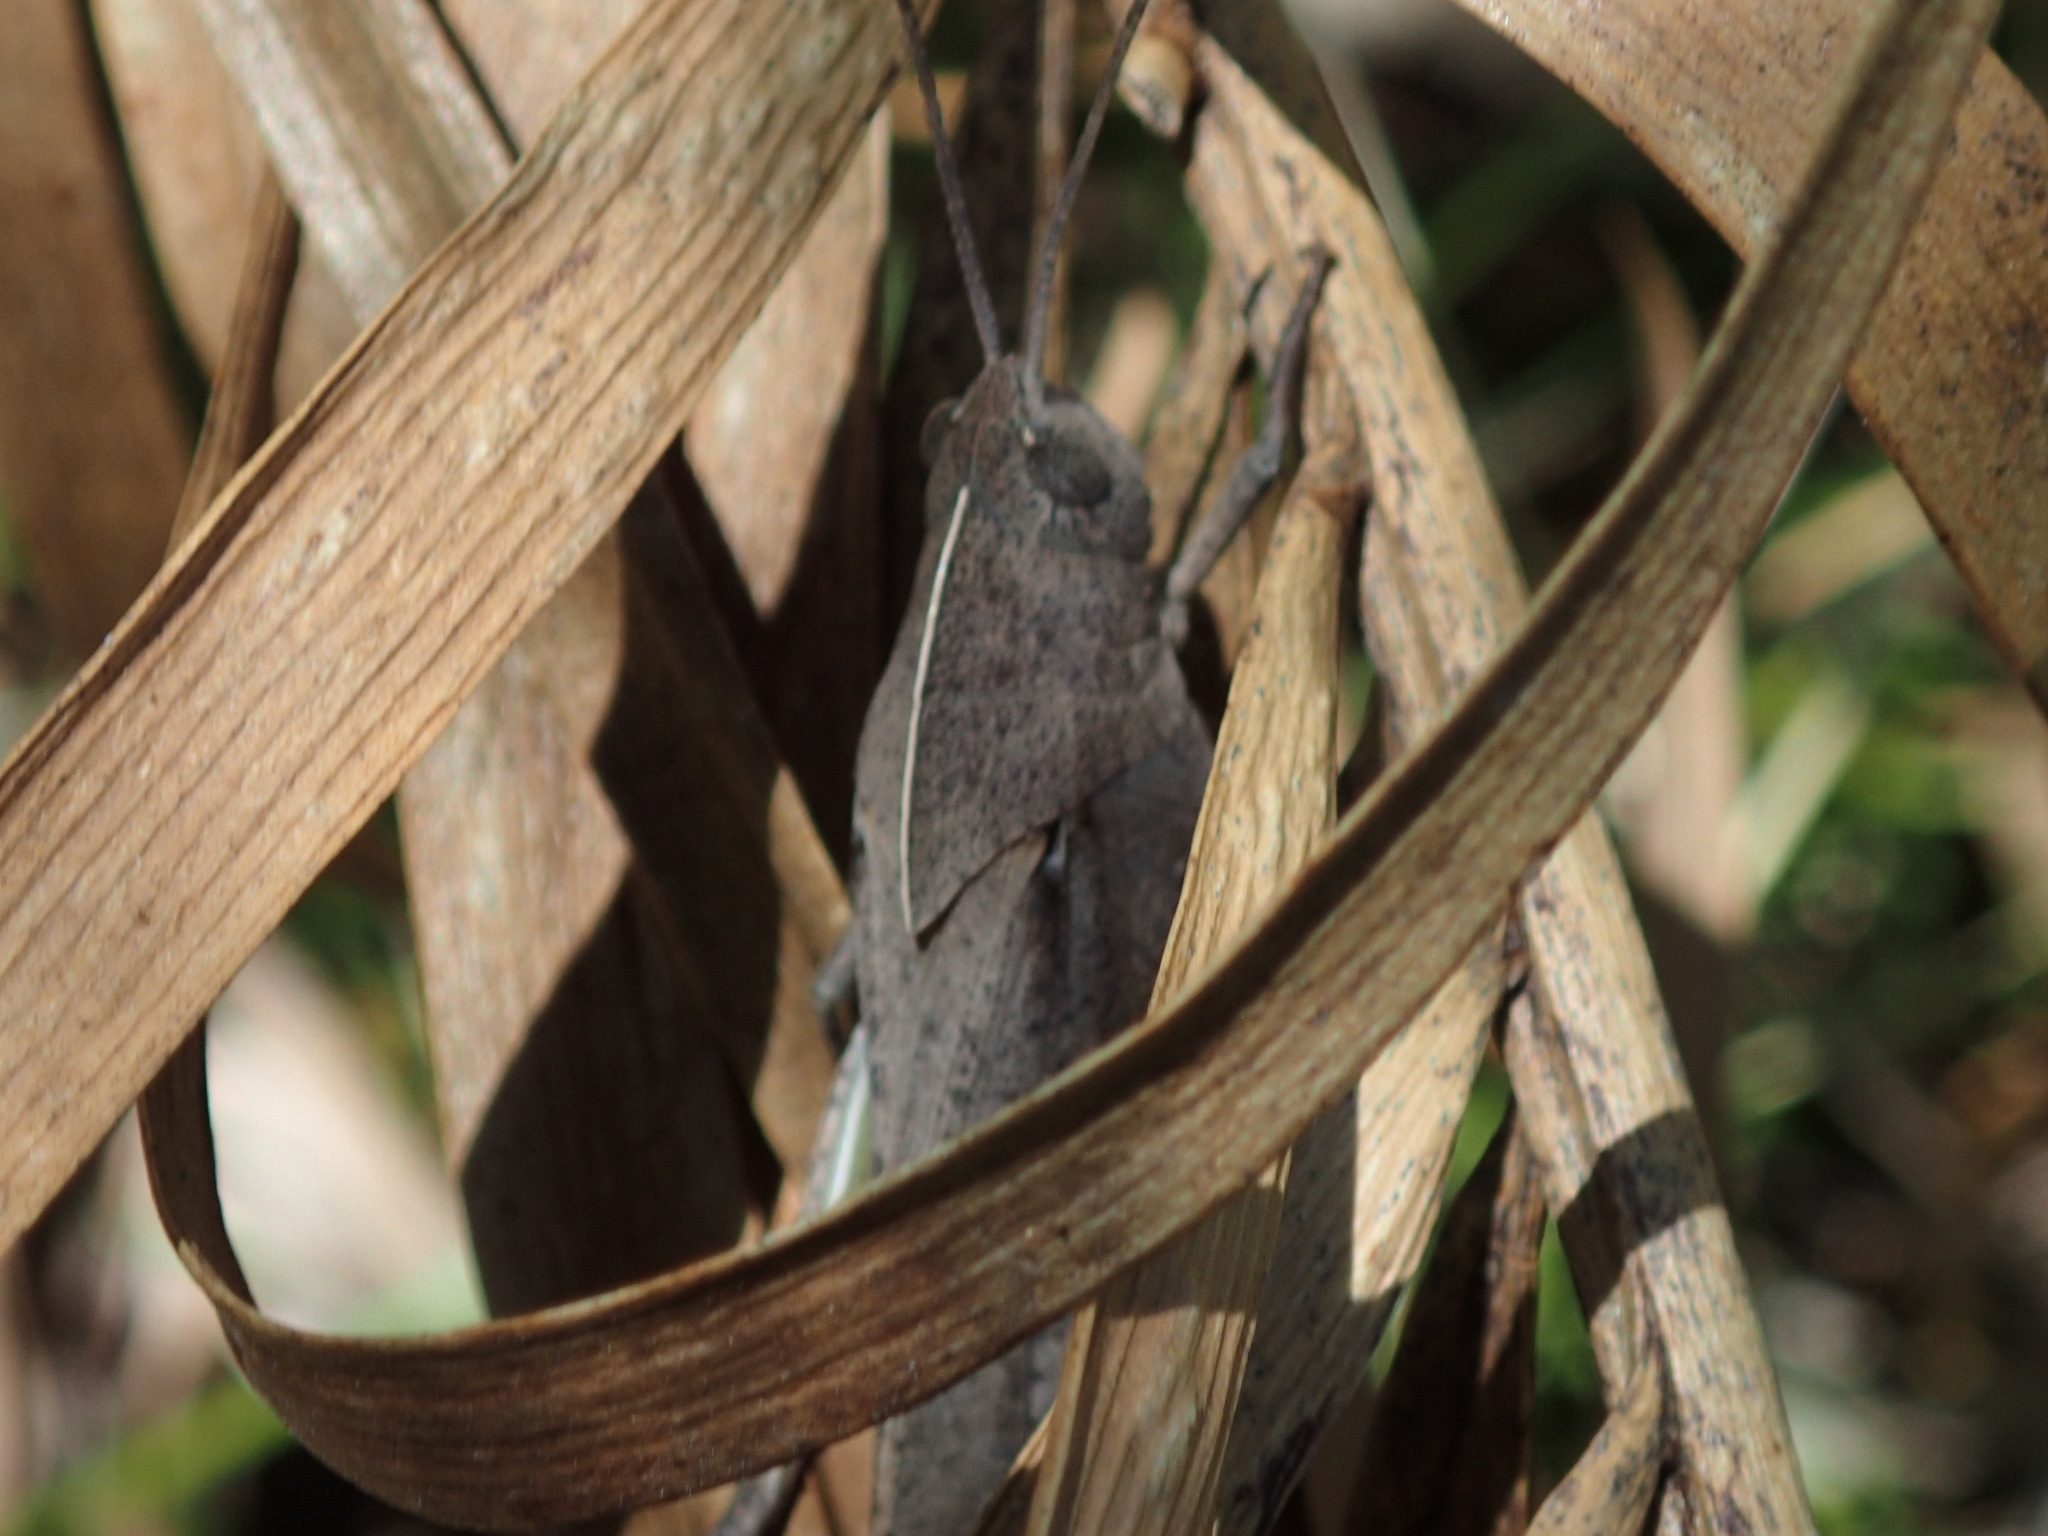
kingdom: Animalia
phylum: Arthropoda
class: Insecta
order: Orthoptera
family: Acrididae
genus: Goniaea
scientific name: Goniaea australasiae
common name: Gumleaf grasshopper
